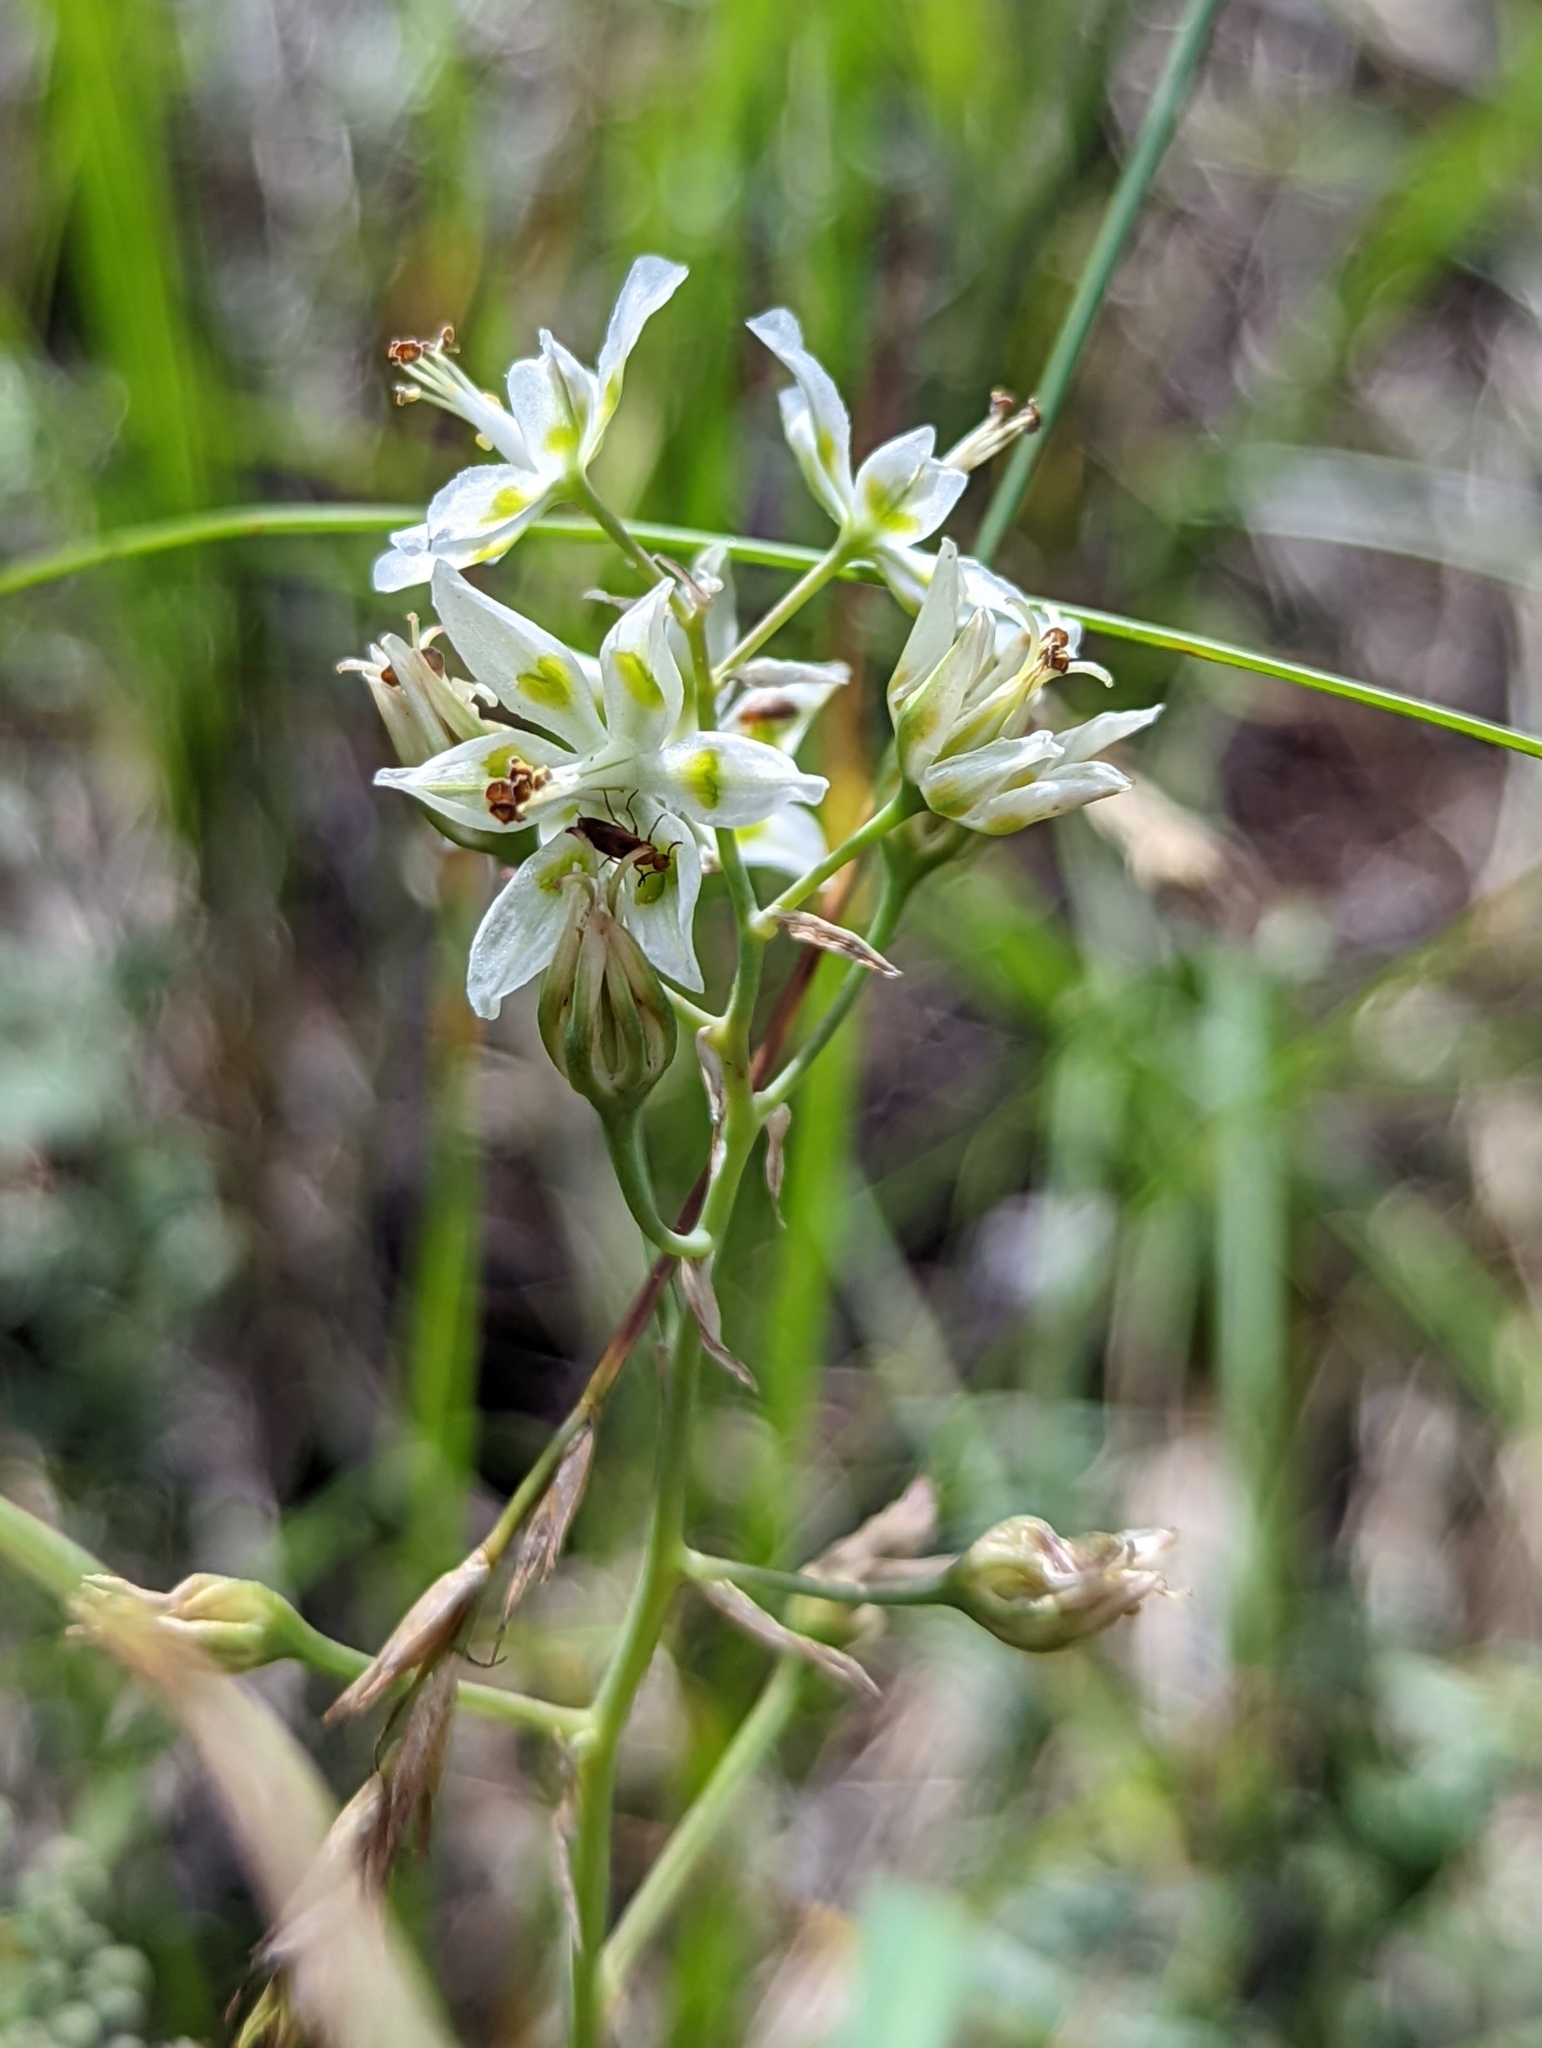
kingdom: Plantae
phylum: Tracheophyta
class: Liliopsida
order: Liliales
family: Melanthiaceae
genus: Anticlea
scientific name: Anticlea elegans
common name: Mountain death camas
